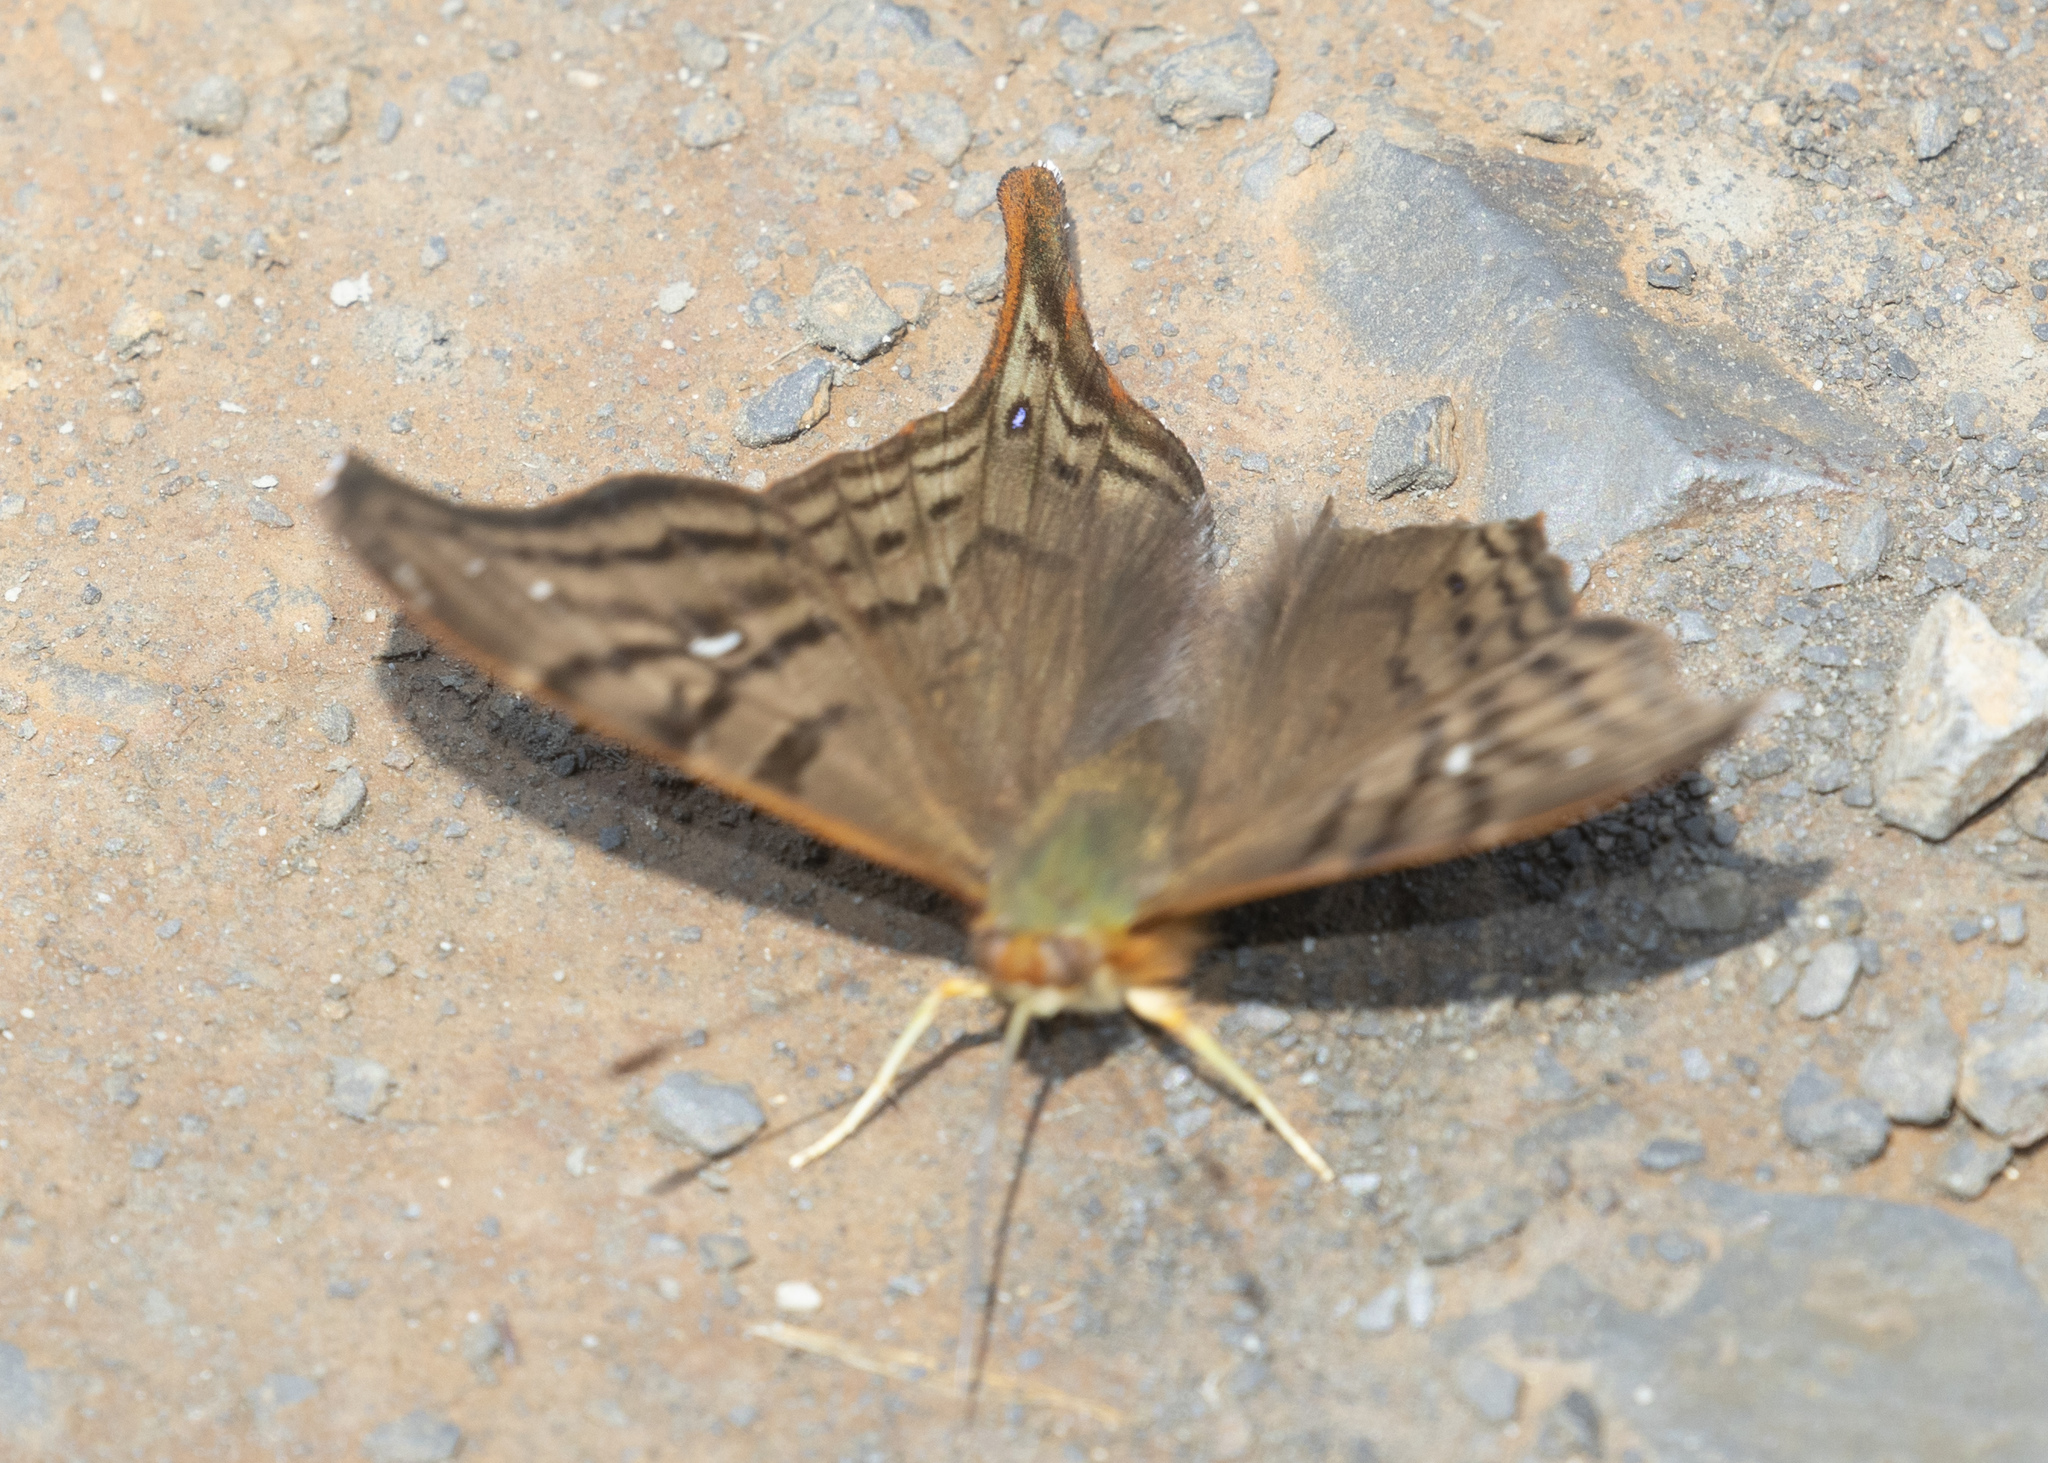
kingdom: Animalia
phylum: Arthropoda
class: Insecta
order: Lepidoptera
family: Nymphalidae
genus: Hypanartia
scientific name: Hypanartia dione
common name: Banded mapwing
